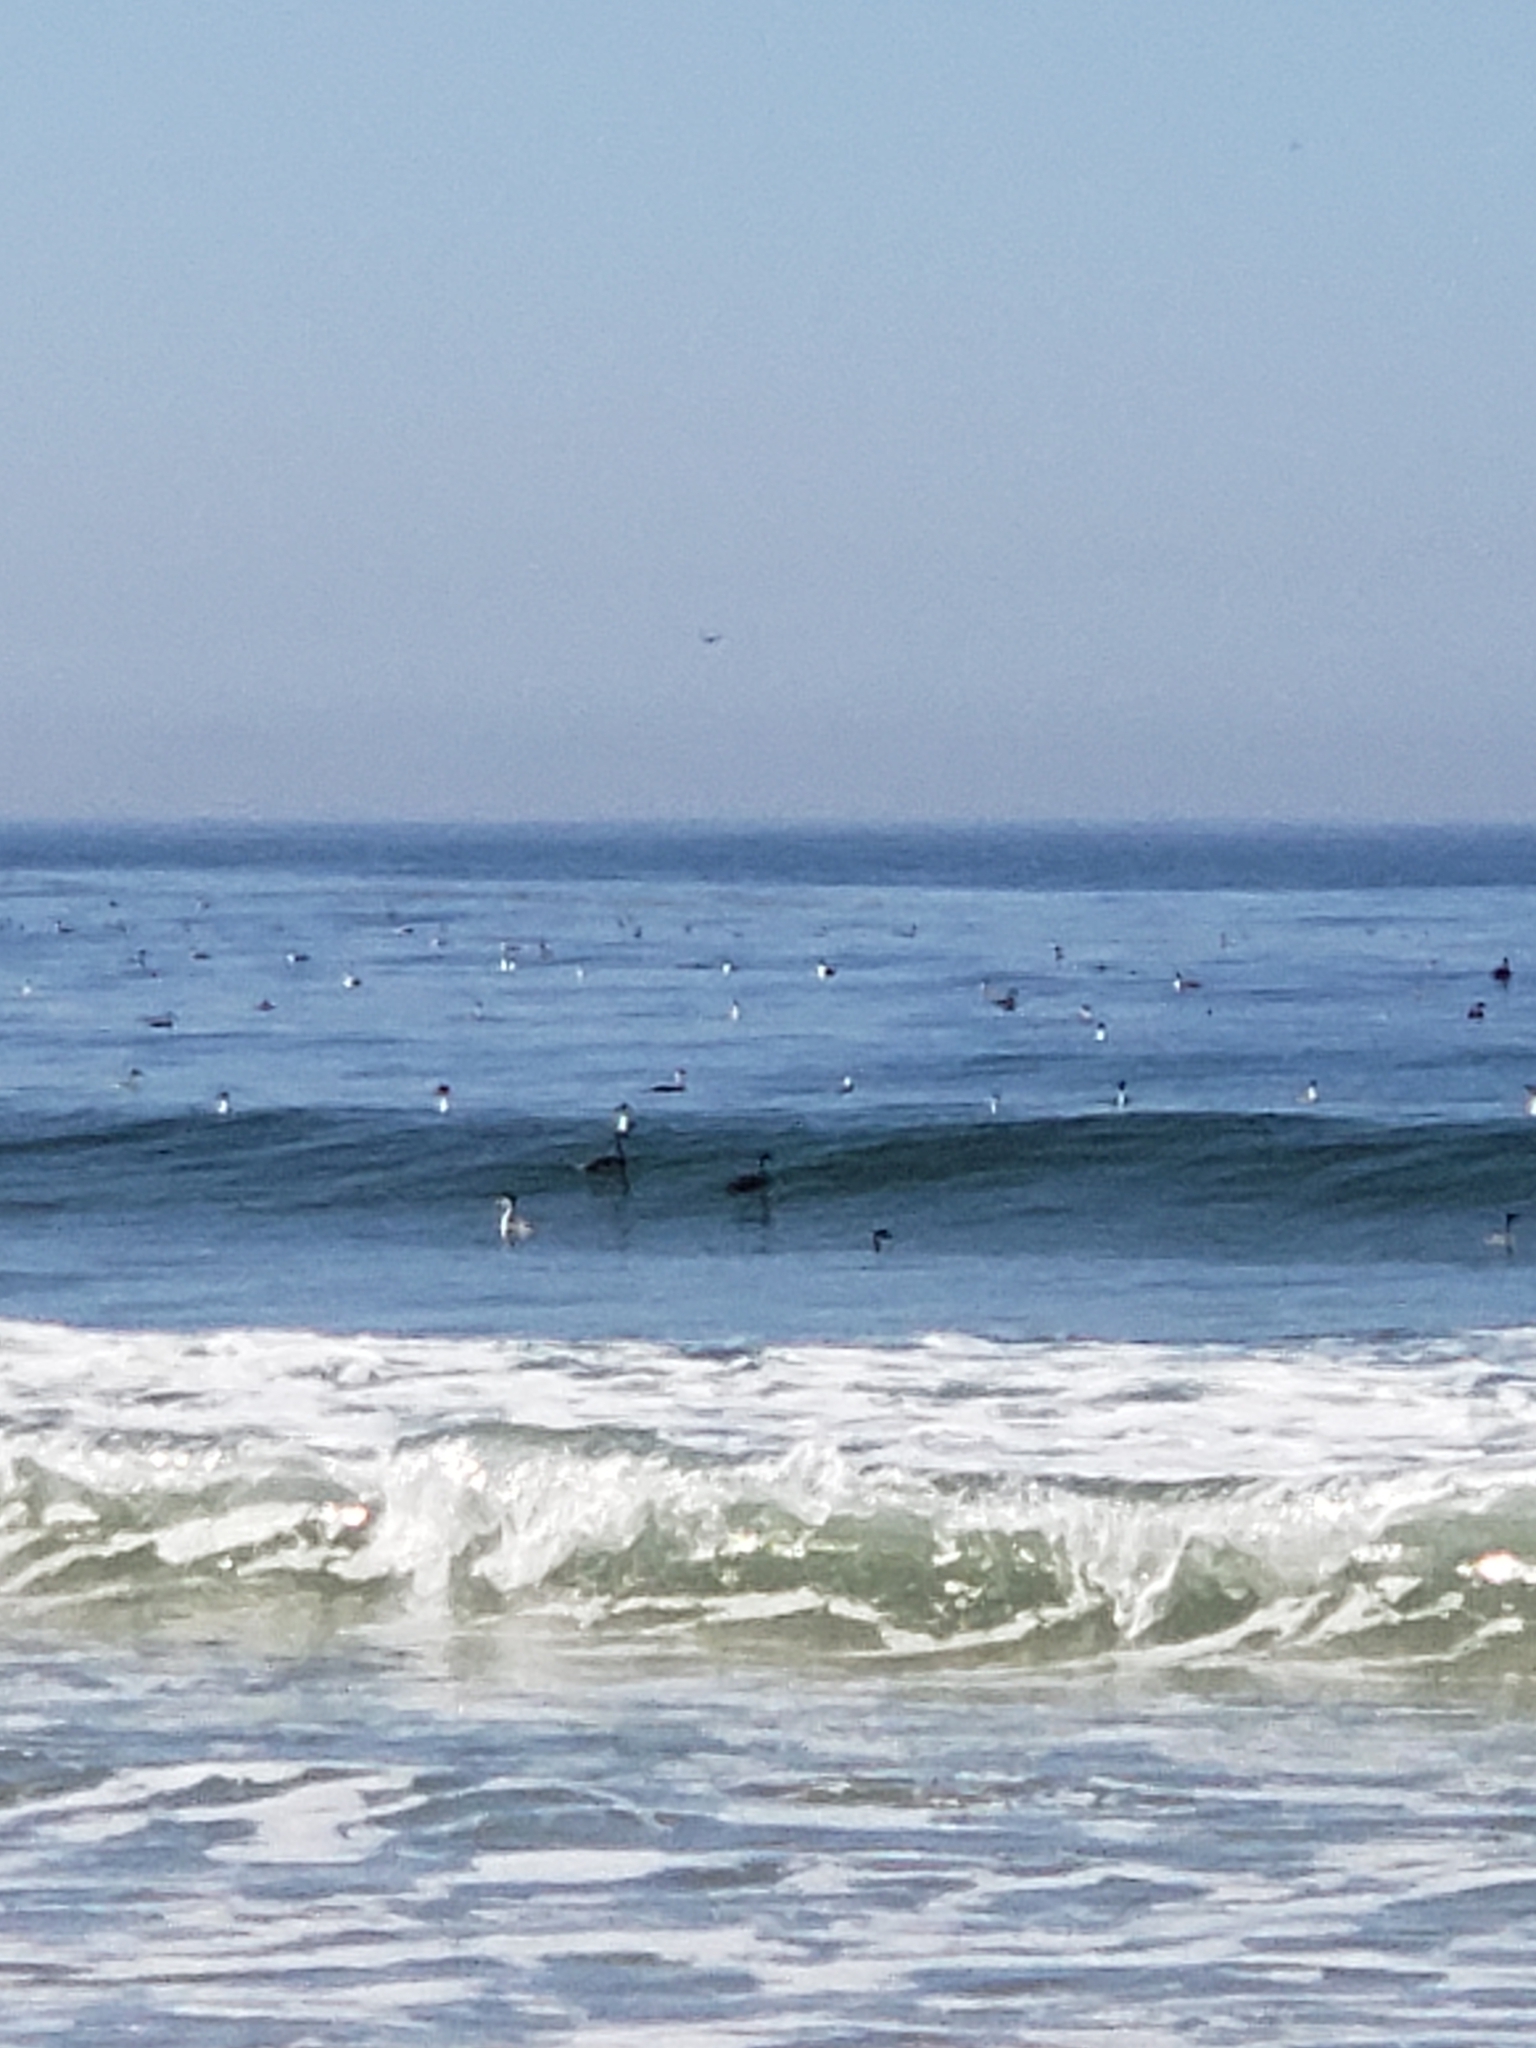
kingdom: Animalia
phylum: Chordata
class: Aves
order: Podicipediformes
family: Podicipedidae
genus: Aechmophorus
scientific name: Aechmophorus occidentalis
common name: Western grebe
